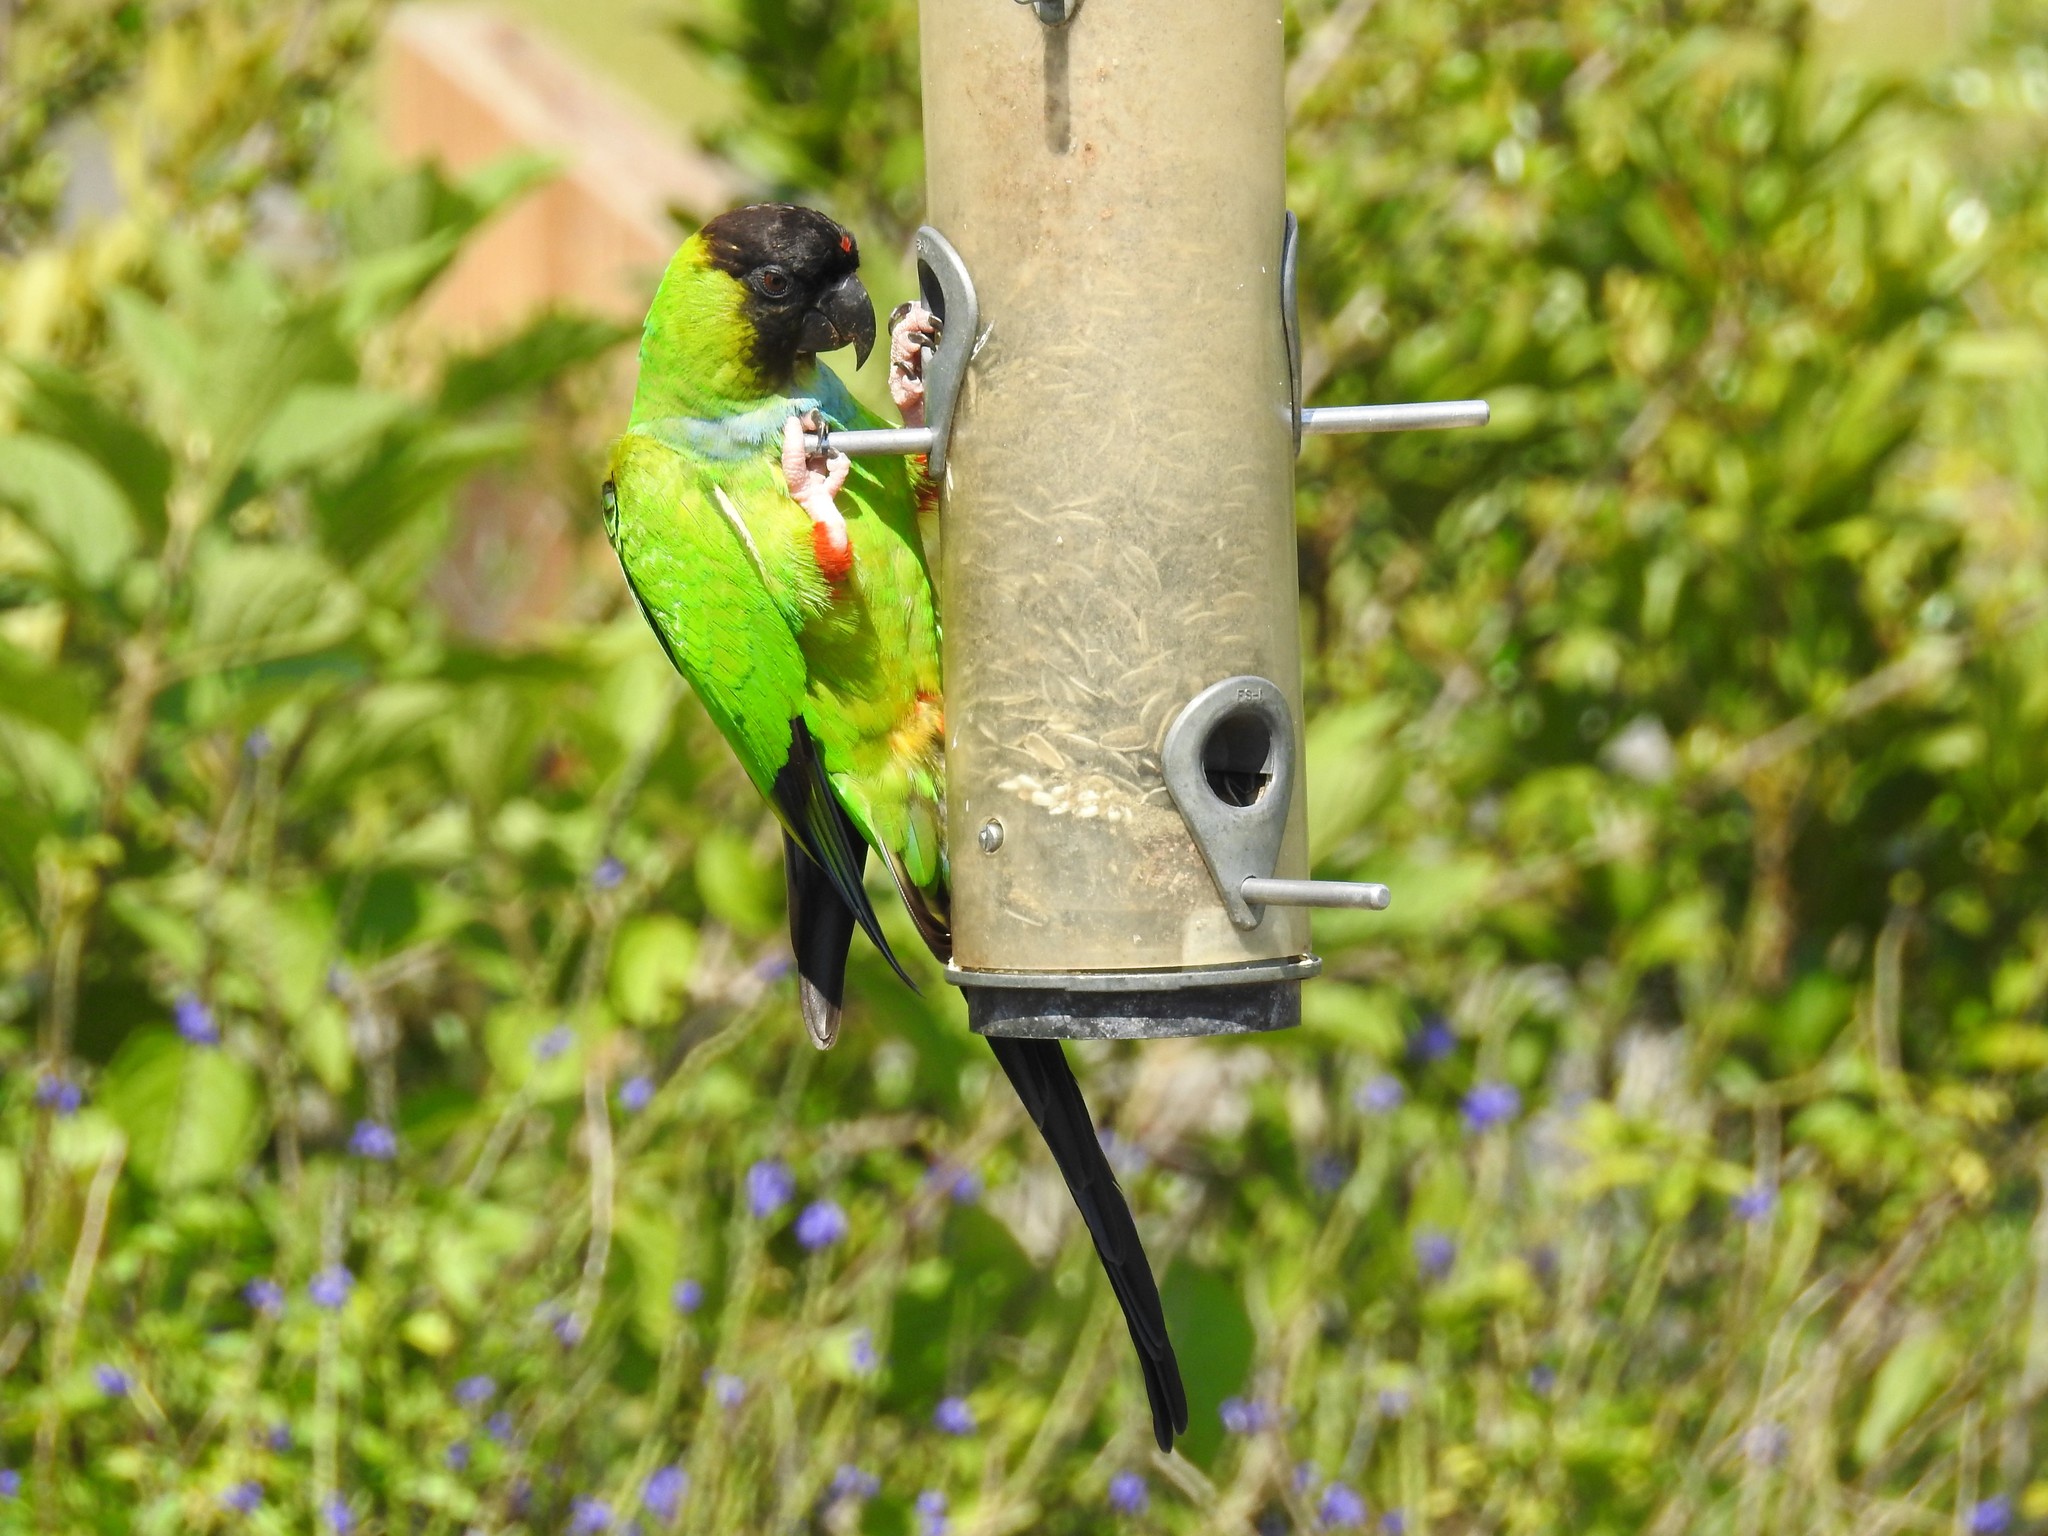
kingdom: Animalia
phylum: Chordata
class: Aves
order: Psittaciformes
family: Psittacidae
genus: Nandayus
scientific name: Nandayus nenday
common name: Nanday parakeet
